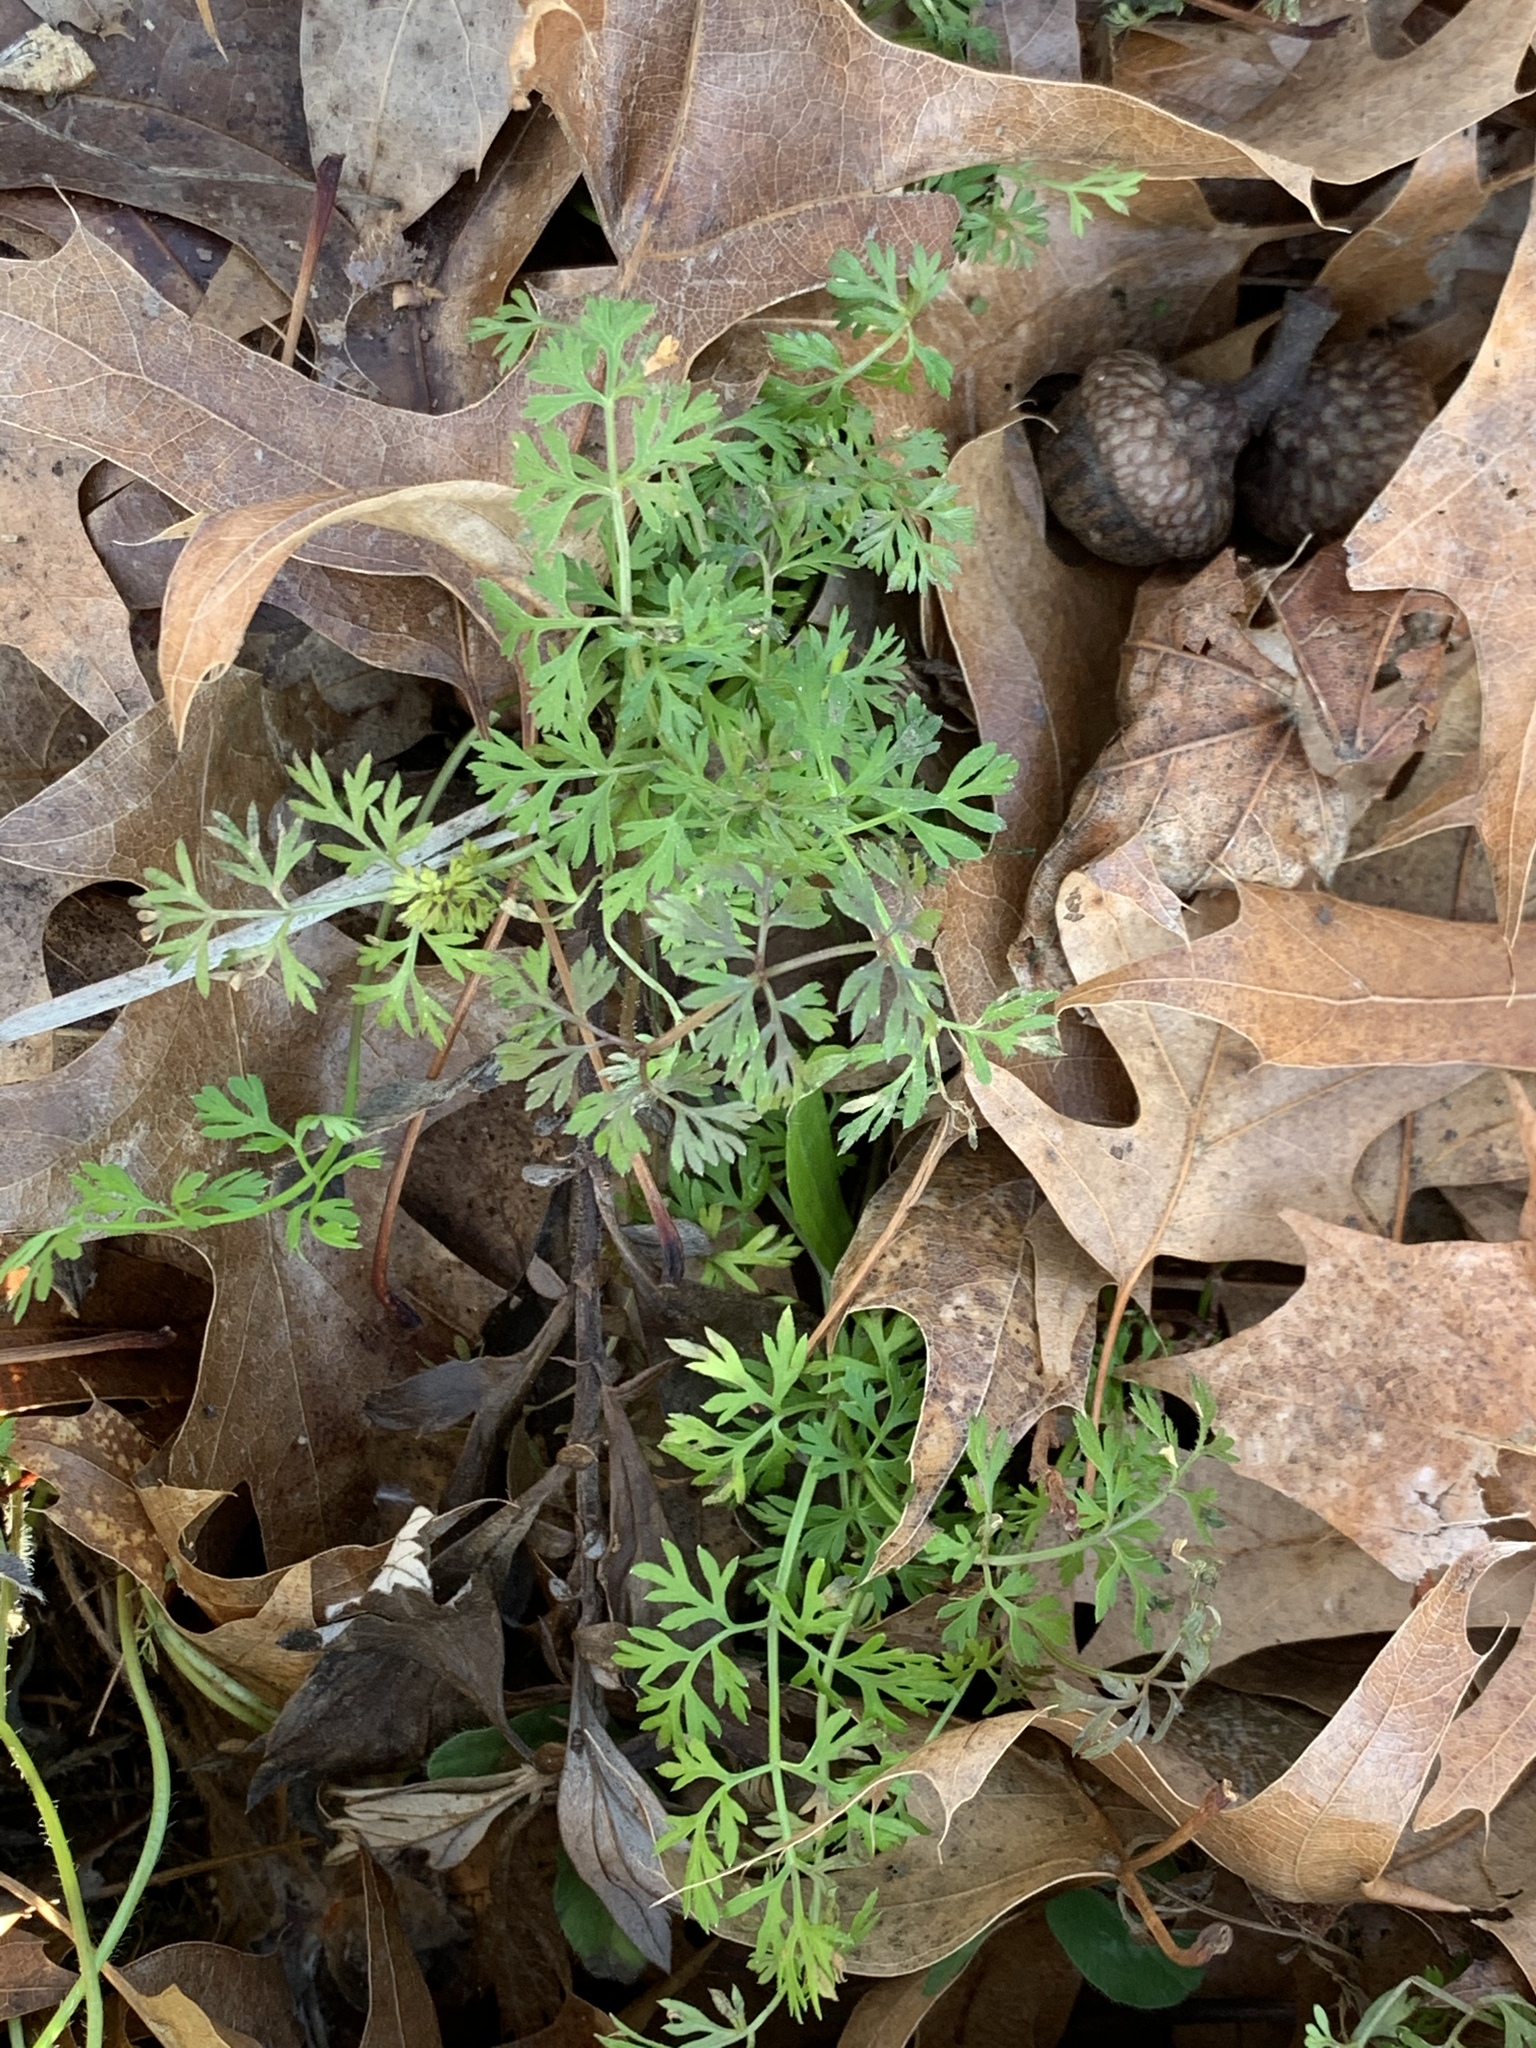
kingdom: Plantae
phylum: Tracheophyta
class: Magnoliopsida
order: Apiales
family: Apiaceae
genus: Daucus
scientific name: Daucus carota
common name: Wild carrot
